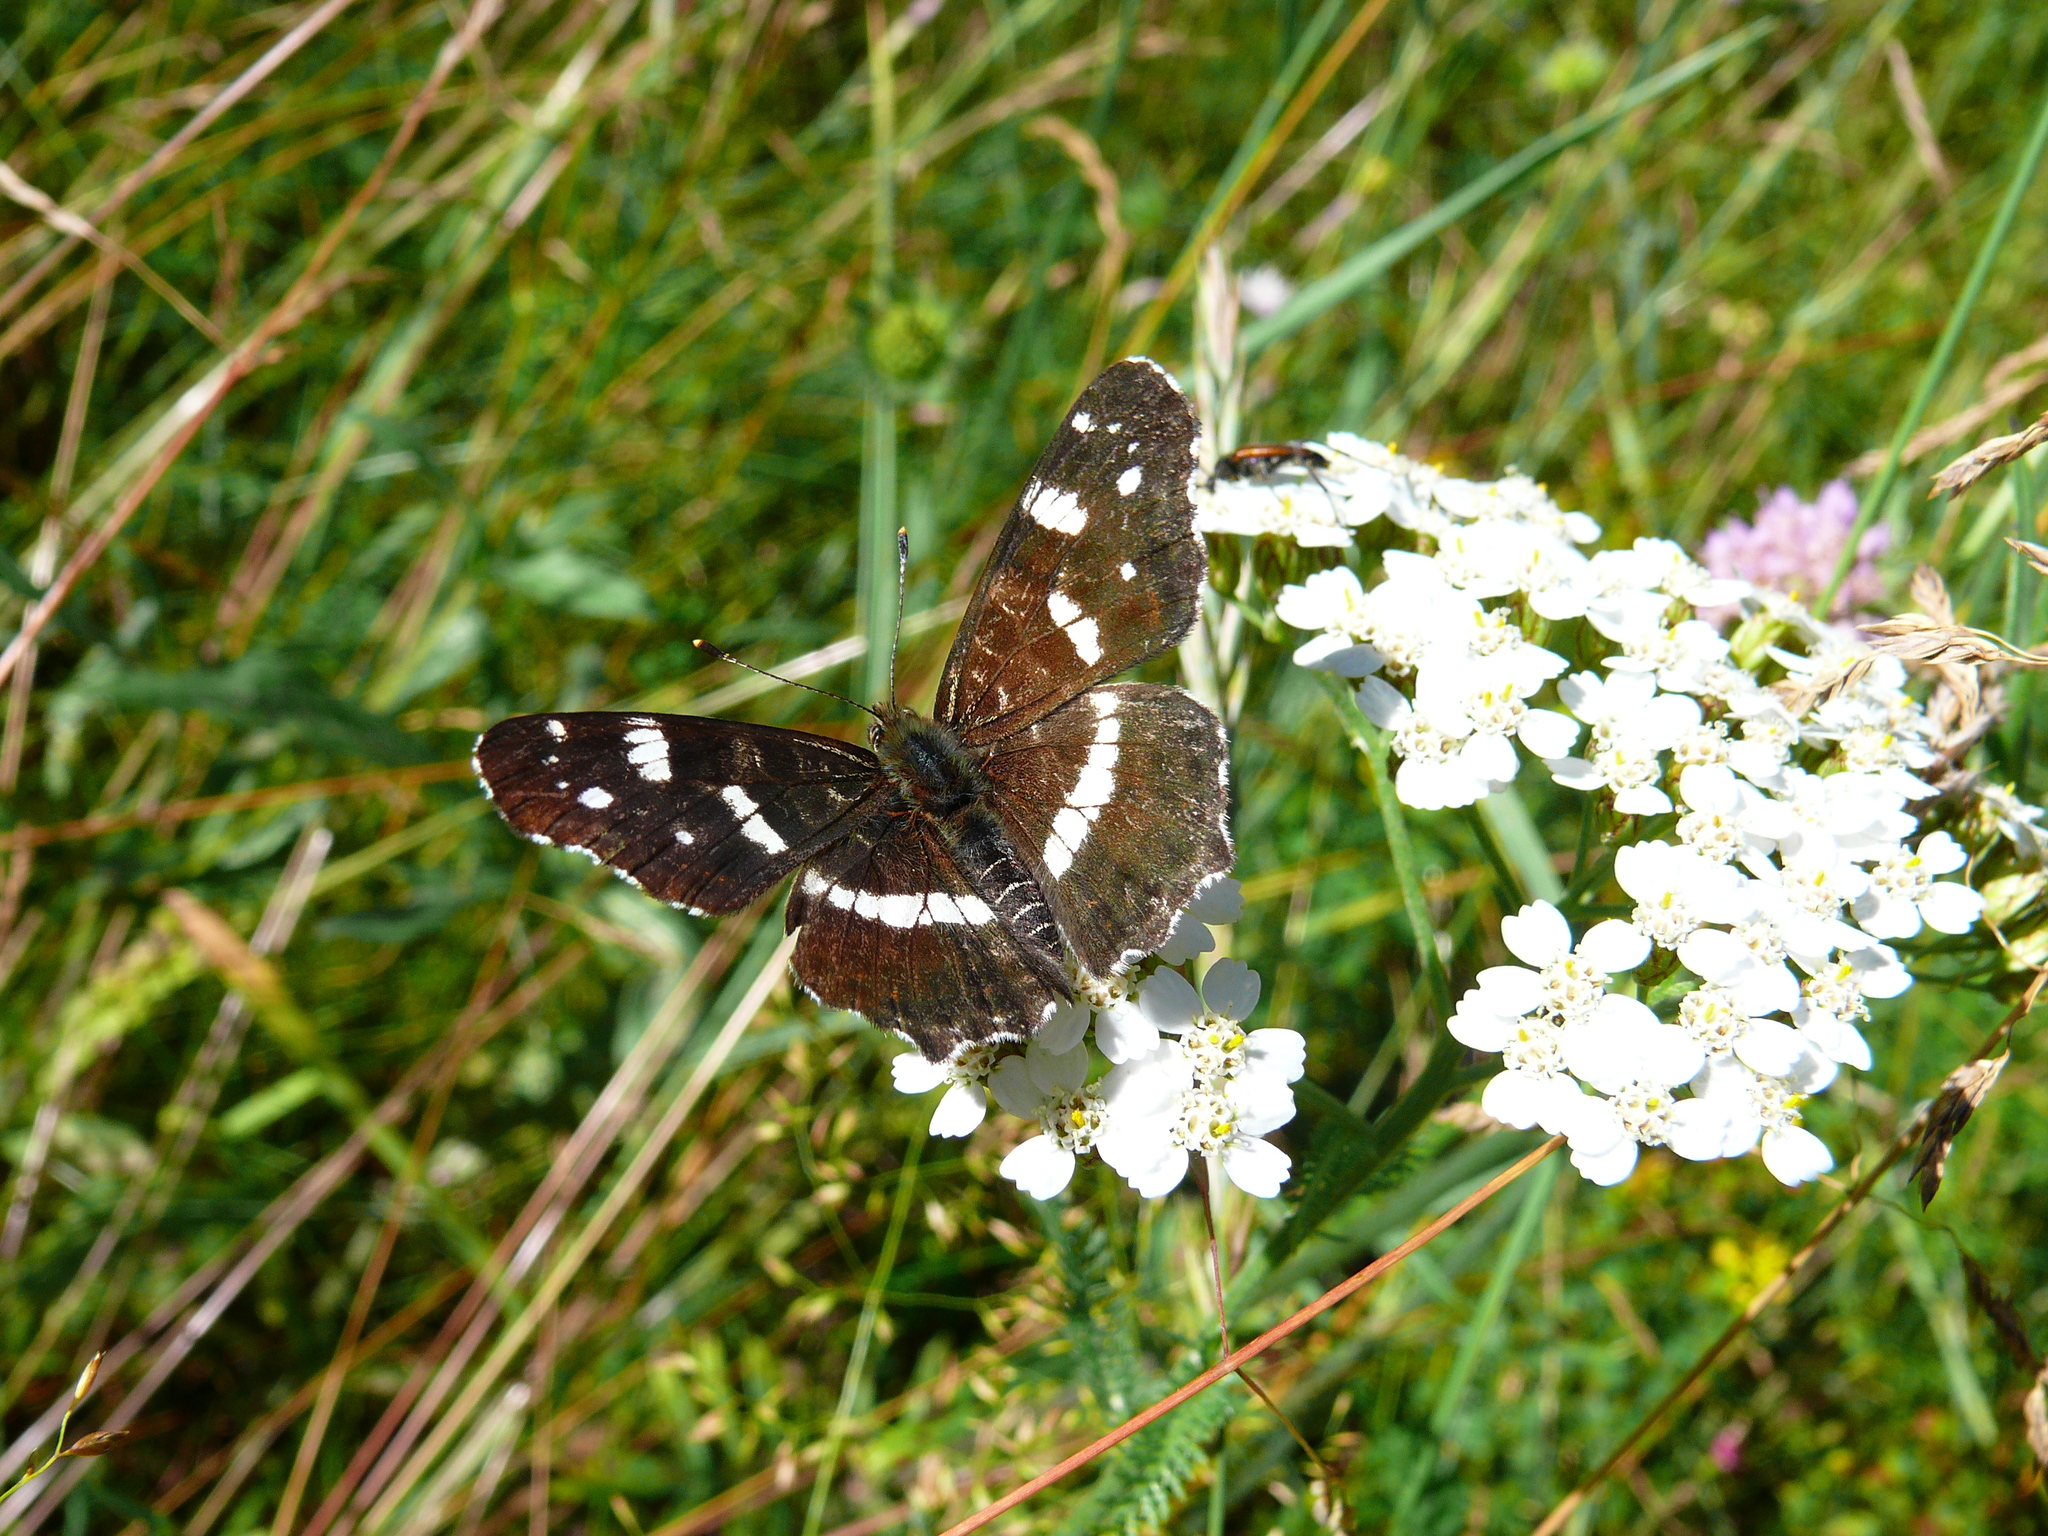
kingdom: Animalia
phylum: Arthropoda
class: Insecta
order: Lepidoptera
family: Nymphalidae
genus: Araschnia
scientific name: Araschnia levana
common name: Map butterfly
